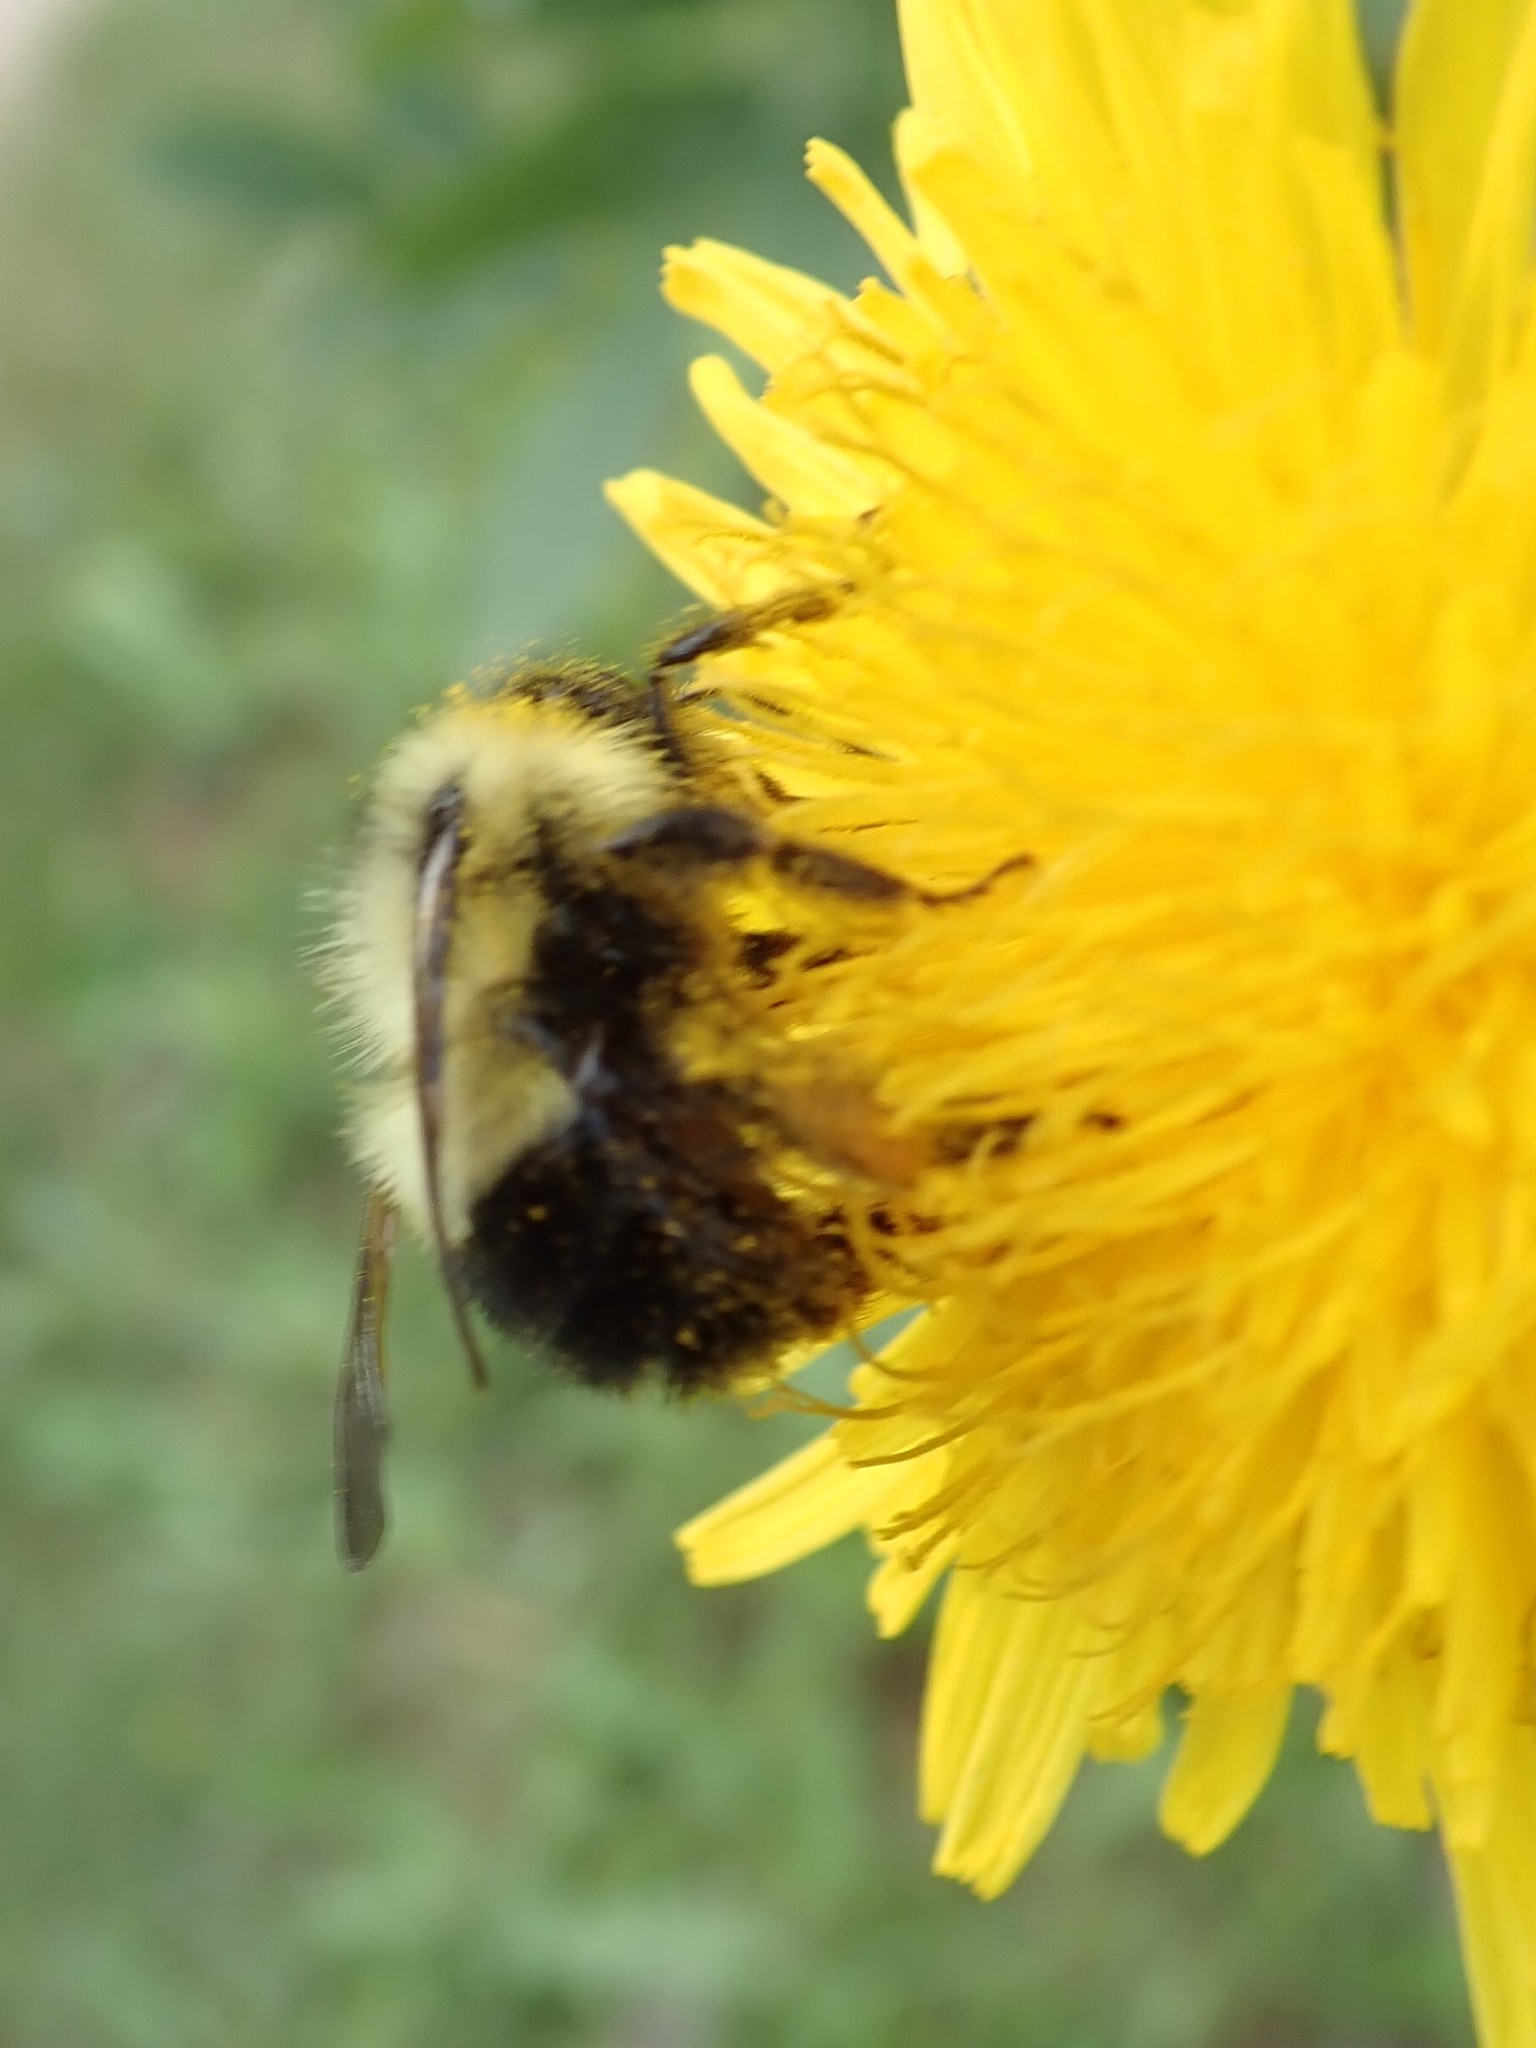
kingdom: Animalia
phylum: Arthropoda
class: Insecta
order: Hymenoptera
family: Apidae
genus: Bombus
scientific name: Bombus vagans
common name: Half-black bumble bee
